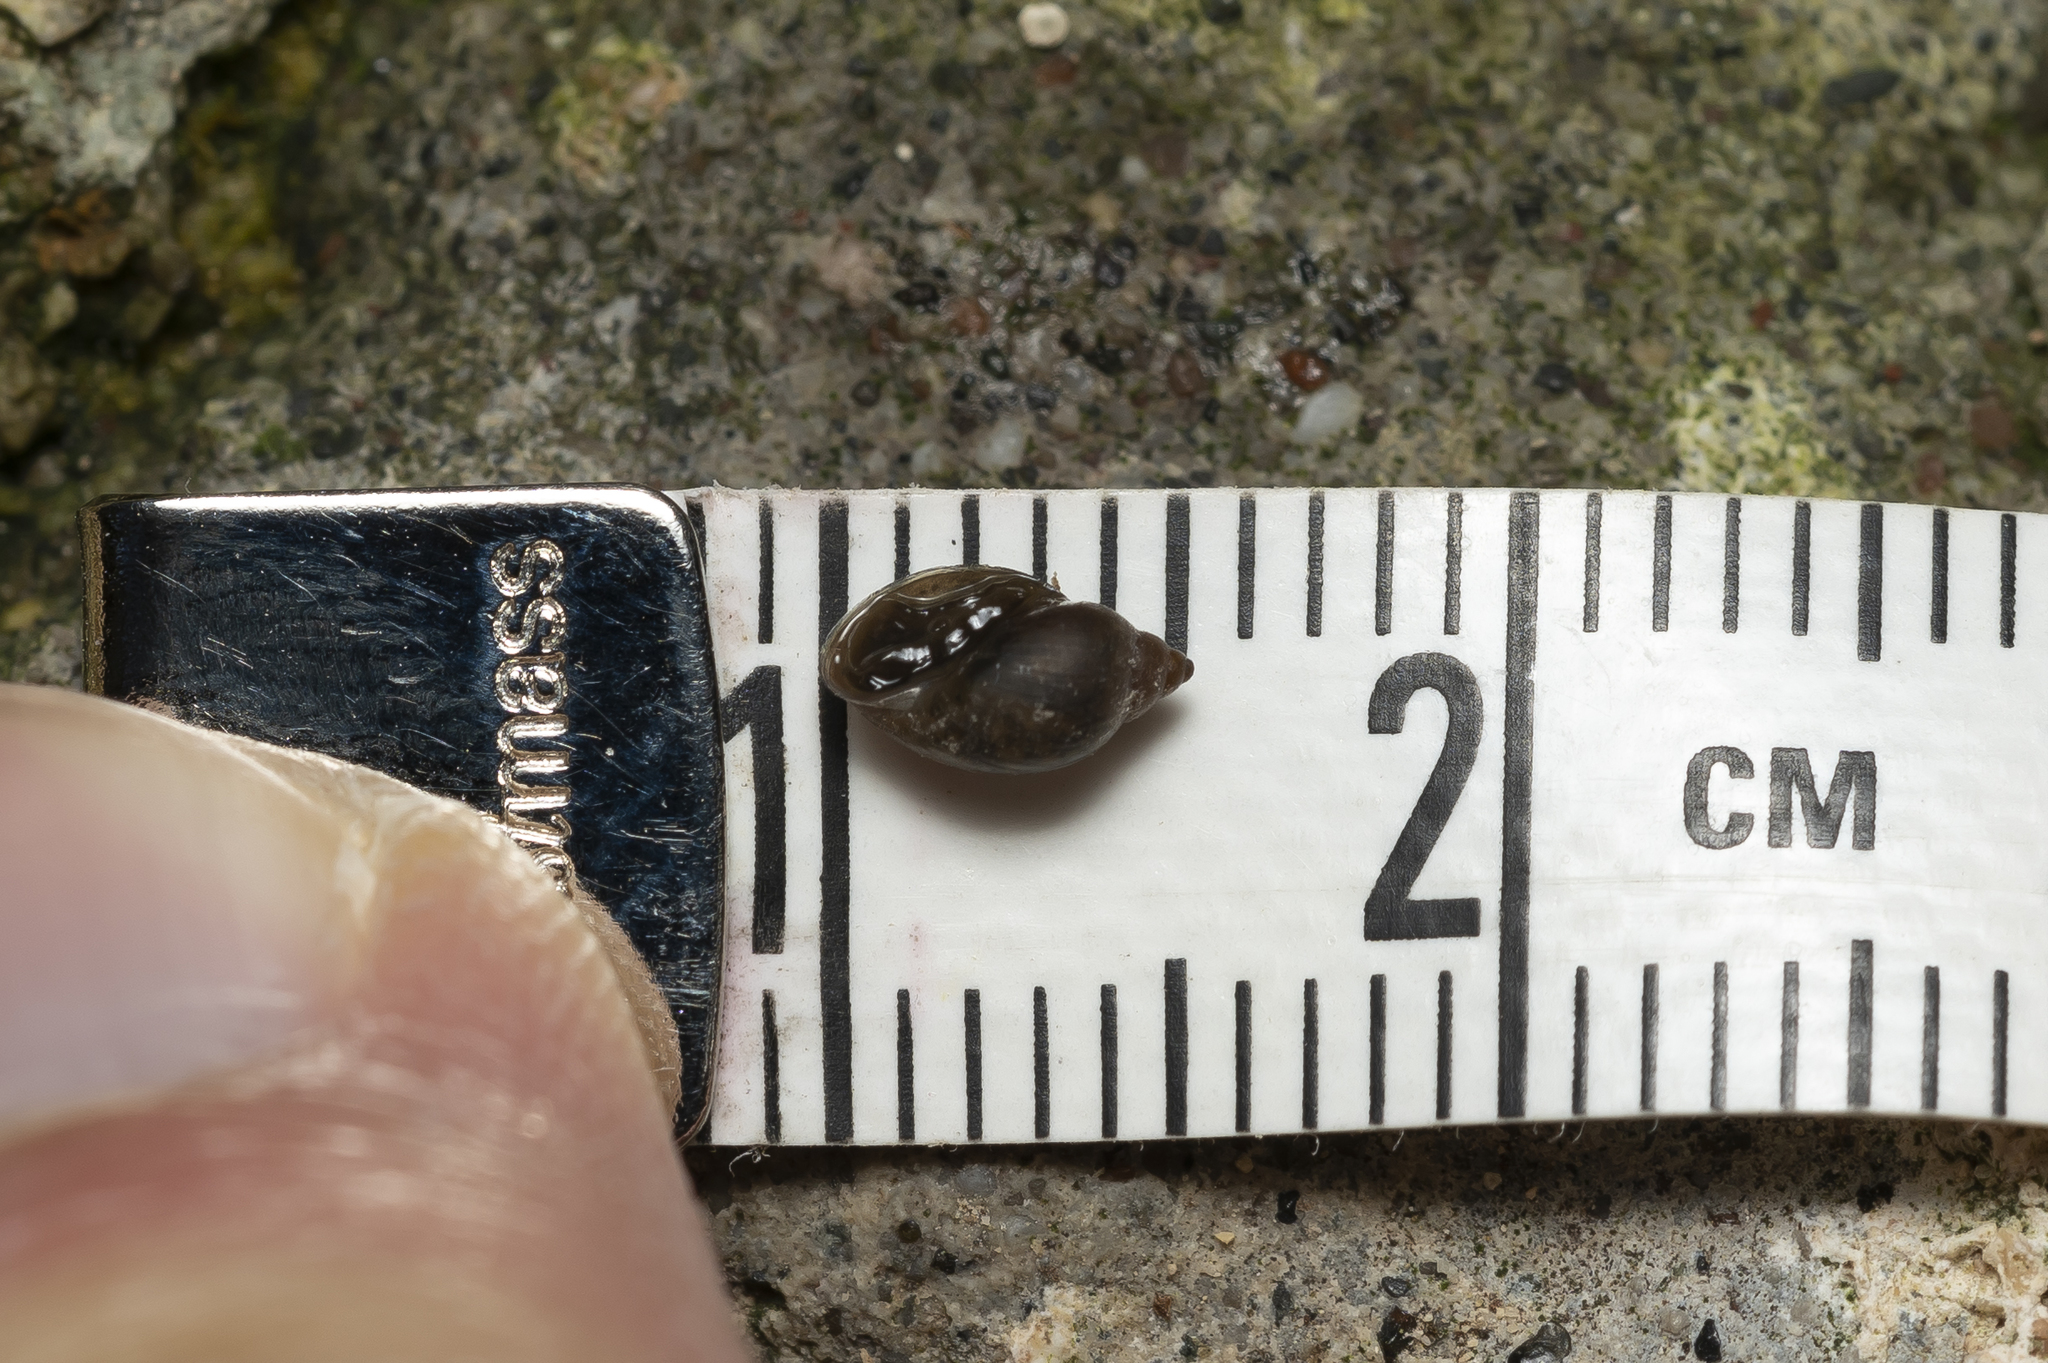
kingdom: Animalia
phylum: Mollusca
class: Gastropoda
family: Physidae
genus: Physella
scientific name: Physella acuta
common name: European physa
